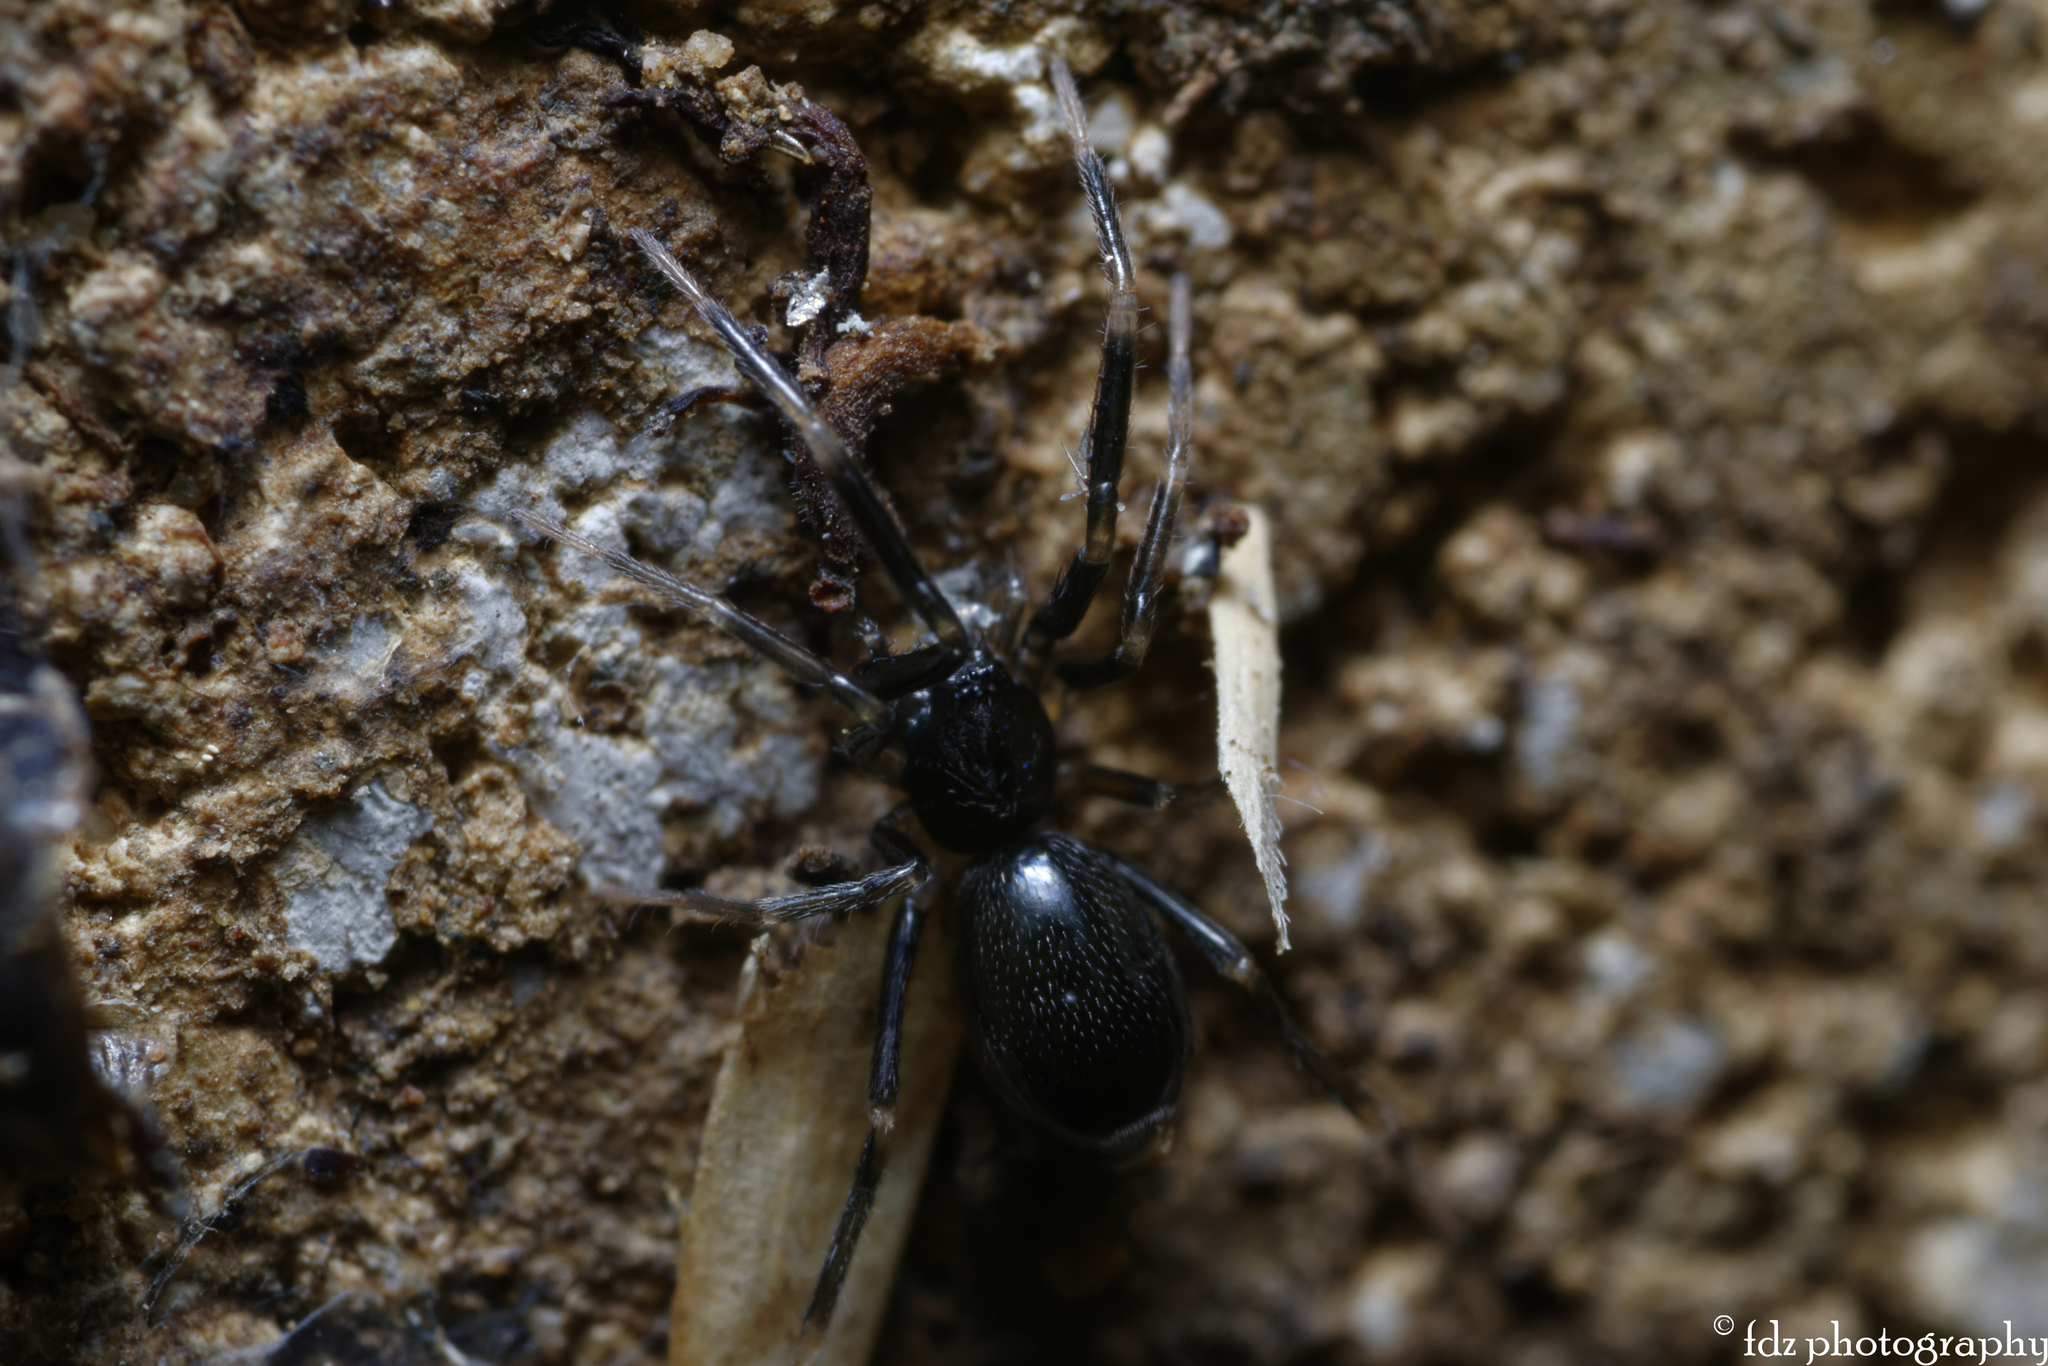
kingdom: Animalia
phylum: Arthropoda
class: Arachnida
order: Araneae
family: Phrurolithidae
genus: Liophrurillus
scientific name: Liophrurillus flavitarsis
